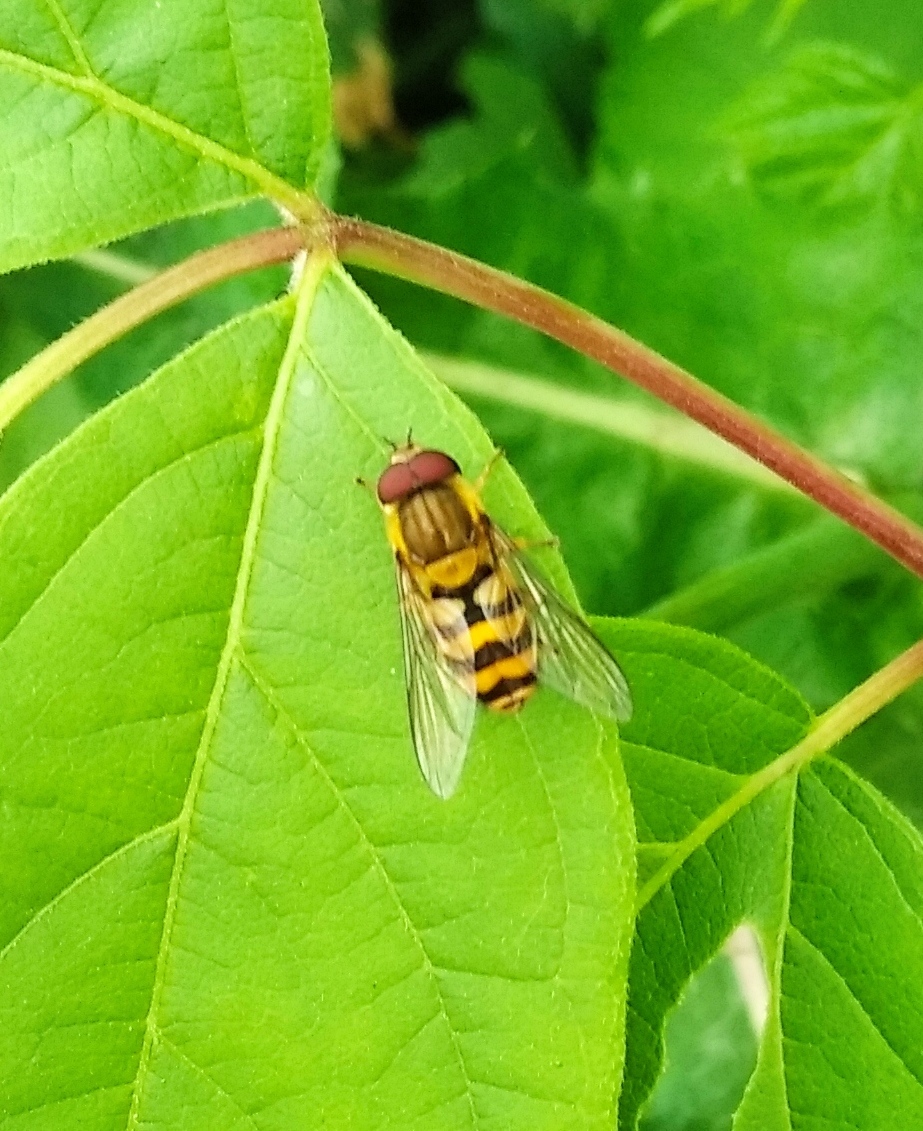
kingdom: Animalia
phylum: Arthropoda
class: Insecta
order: Diptera
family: Syrphidae
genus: Syrphus
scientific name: Syrphus
